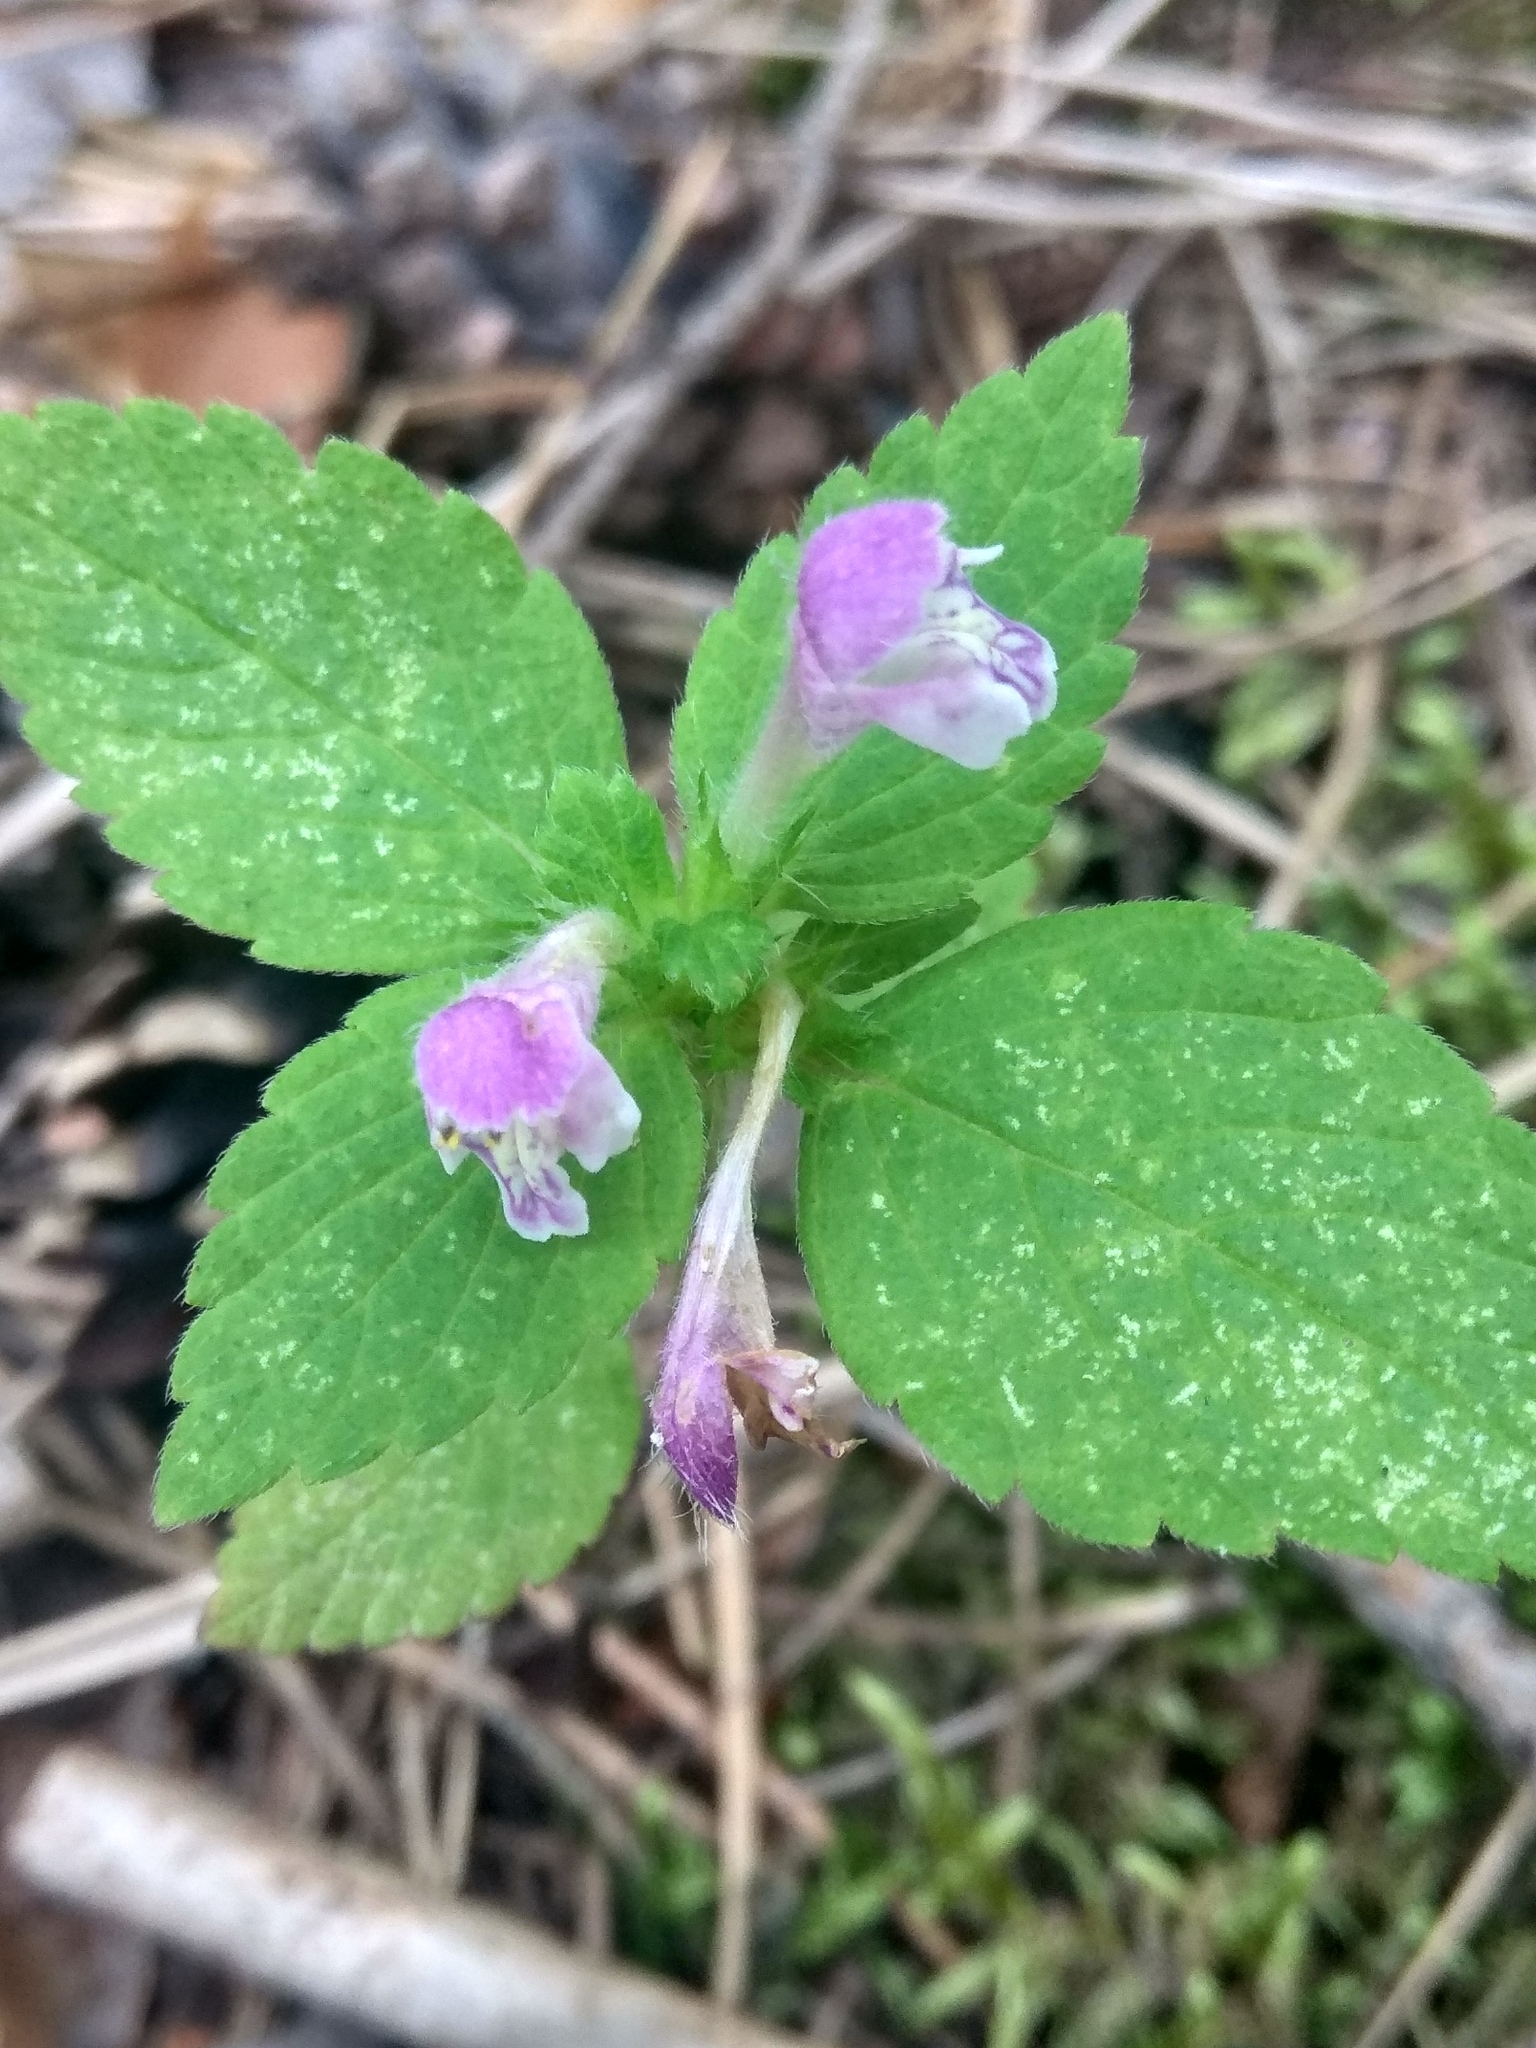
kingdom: Plantae
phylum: Tracheophyta
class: Magnoliopsida
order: Lamiales
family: Lamiaceae
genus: Galeopsis
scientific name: Galeopsis bifida
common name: Bifid hemp-nettle
